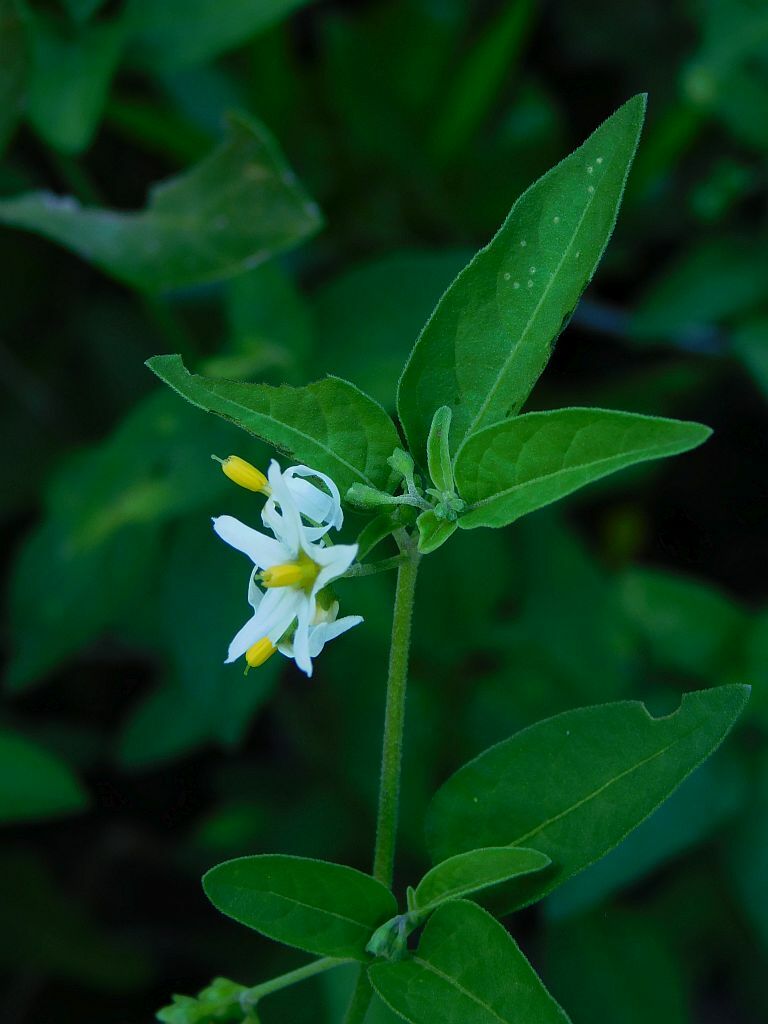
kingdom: Plantae
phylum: Tracheophyta
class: Magnoliopsida
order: Solanales
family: Solanaceae
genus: Solanum
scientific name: Solanum chenopodioides
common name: Tall nightshade
